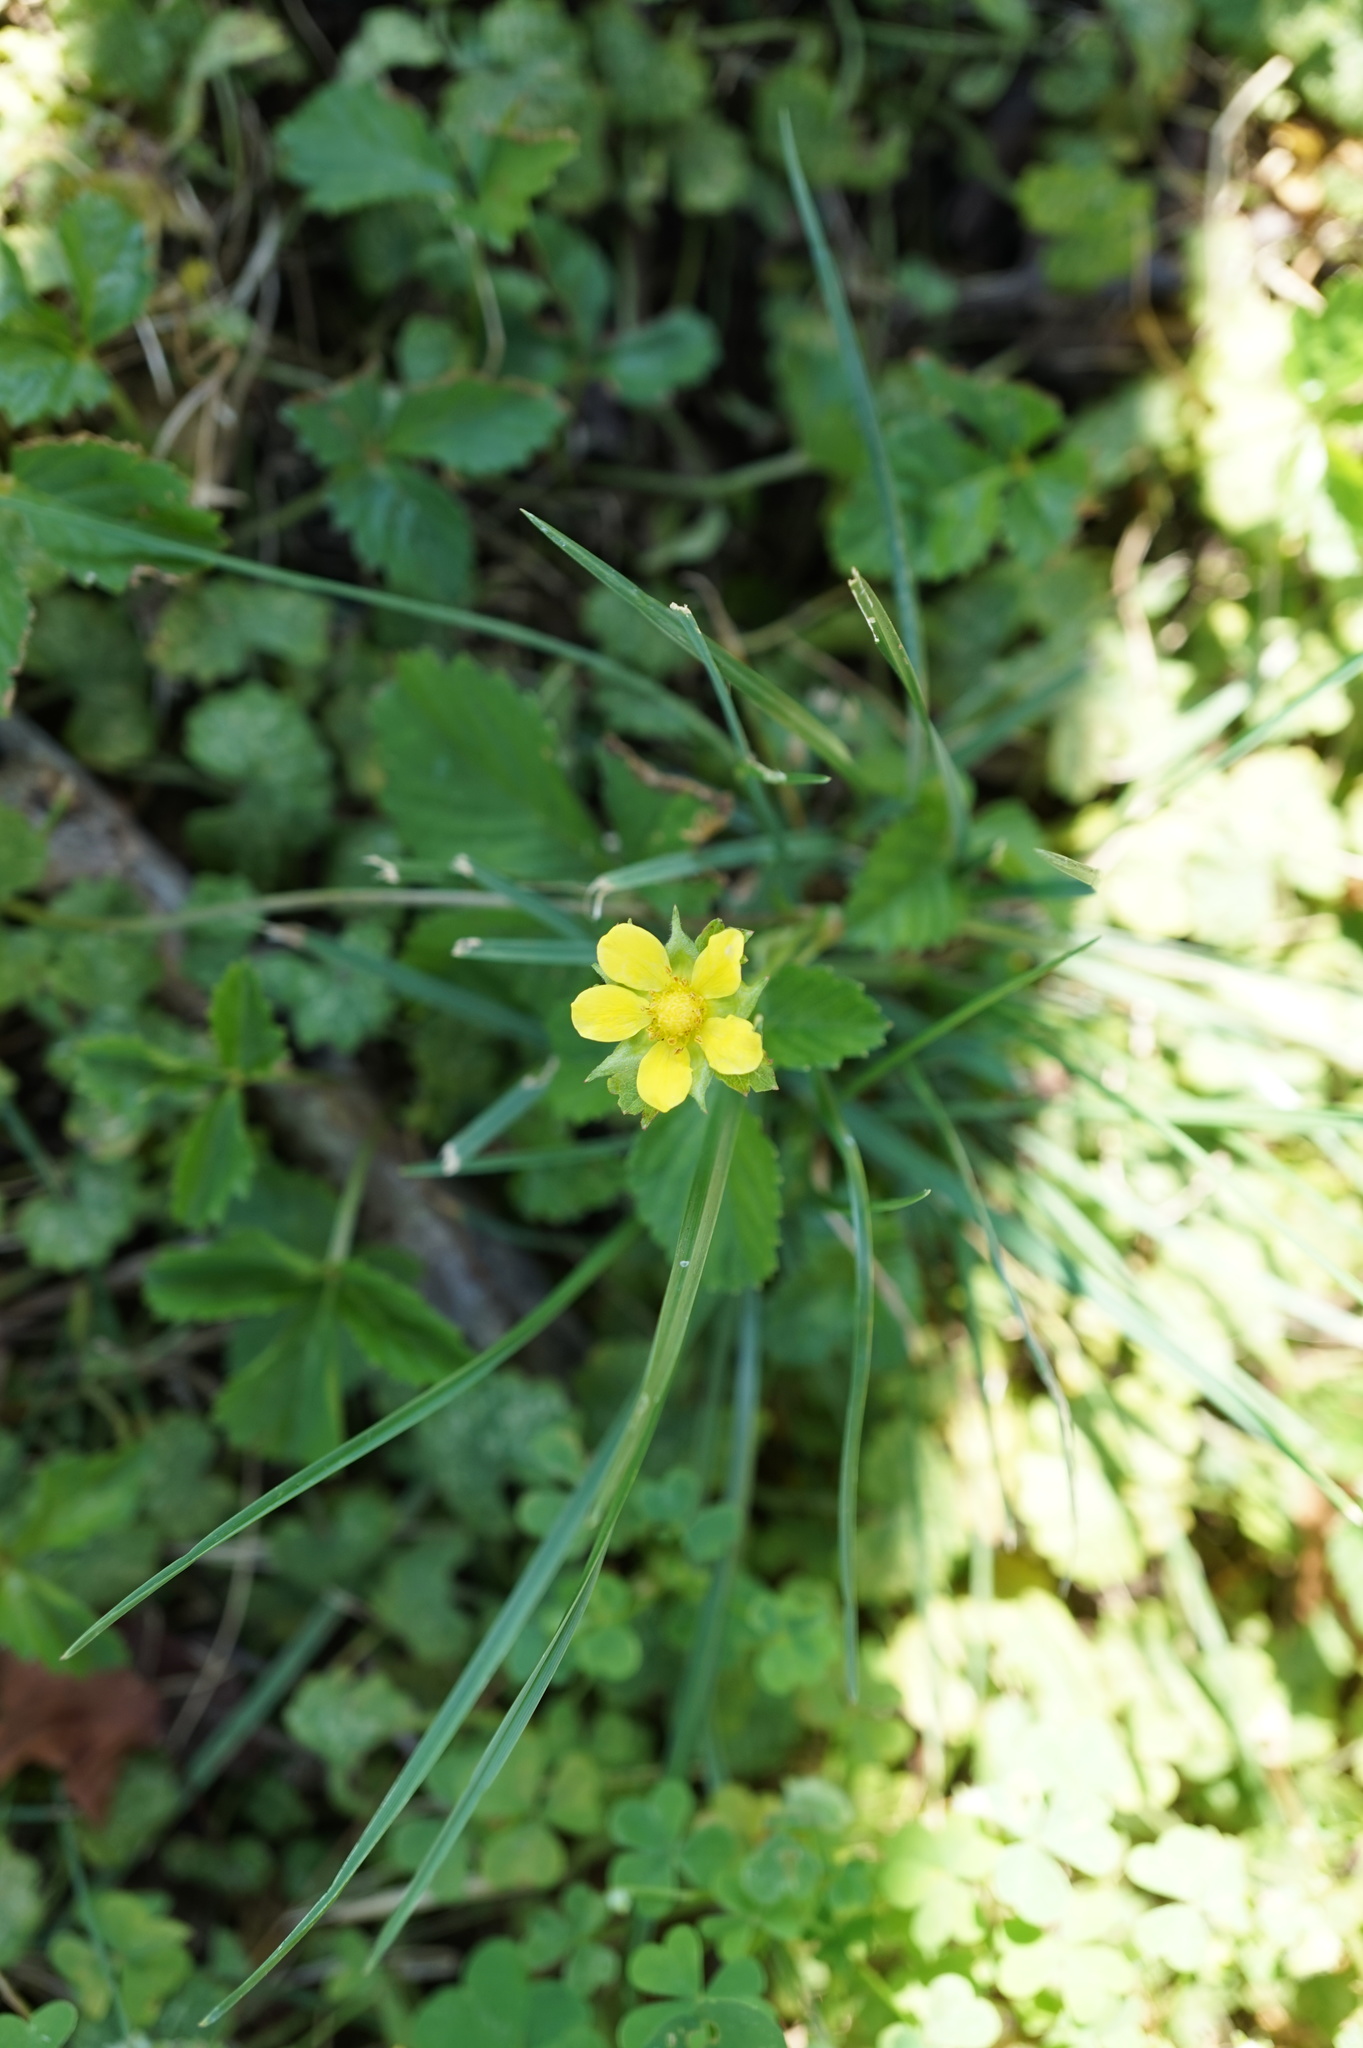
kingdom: Plantae
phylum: Tracheophyta
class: Magnoliopsida
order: Rosales
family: Rosaceae
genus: Potentilla
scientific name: Potentilla indica
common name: Yellow-flowered strawberry
